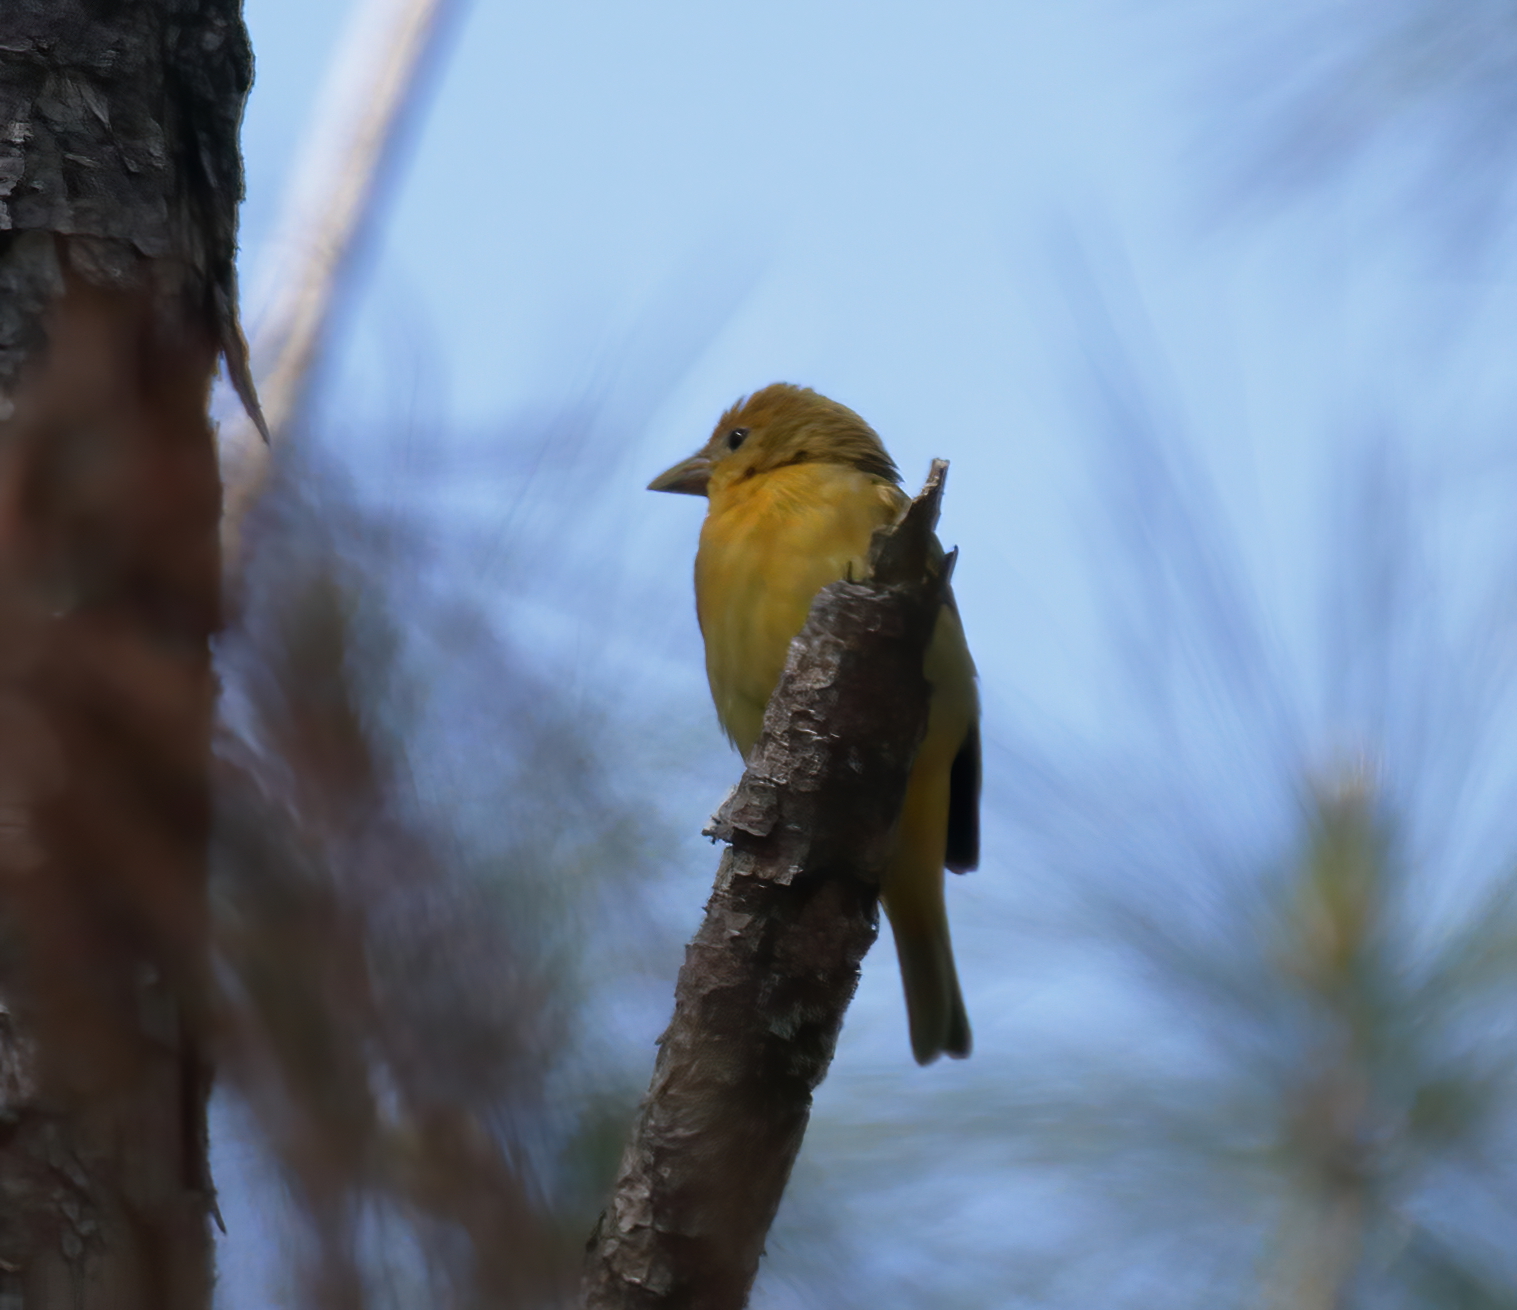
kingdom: Animalia
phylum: Chordata
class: Aves
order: Passeriformes
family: Cardinalidae
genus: Piranga
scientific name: Piranga rubra
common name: Summer tanager
